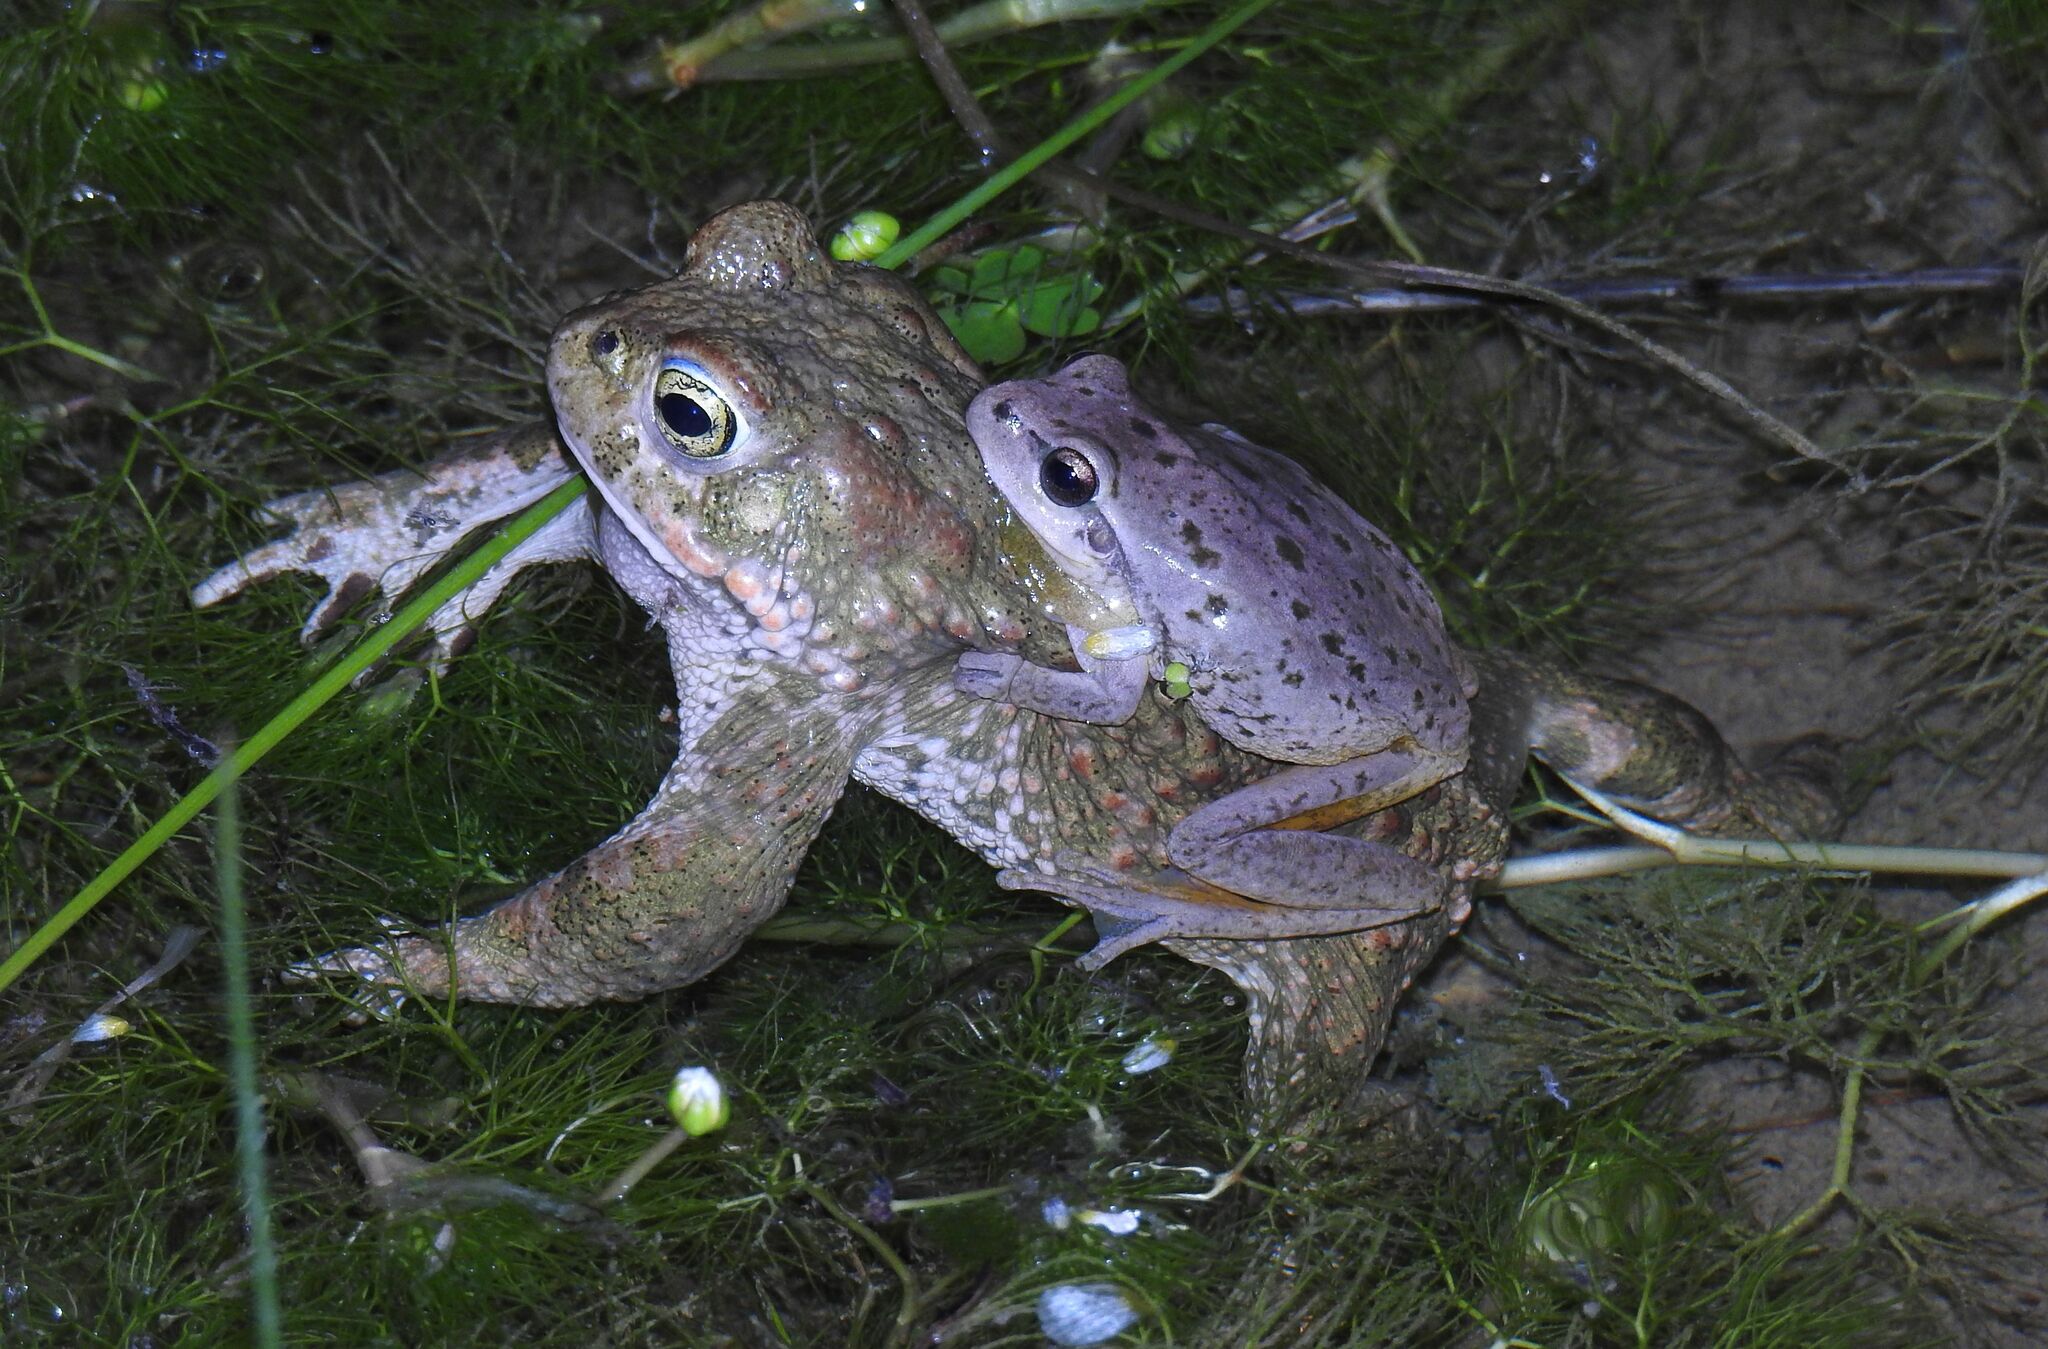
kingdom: Animalia
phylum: Chordata
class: Amphibia
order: Anura
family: Hylidae
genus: Hyla
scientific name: Hyla meridionalis
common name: Stripeless tree frog
